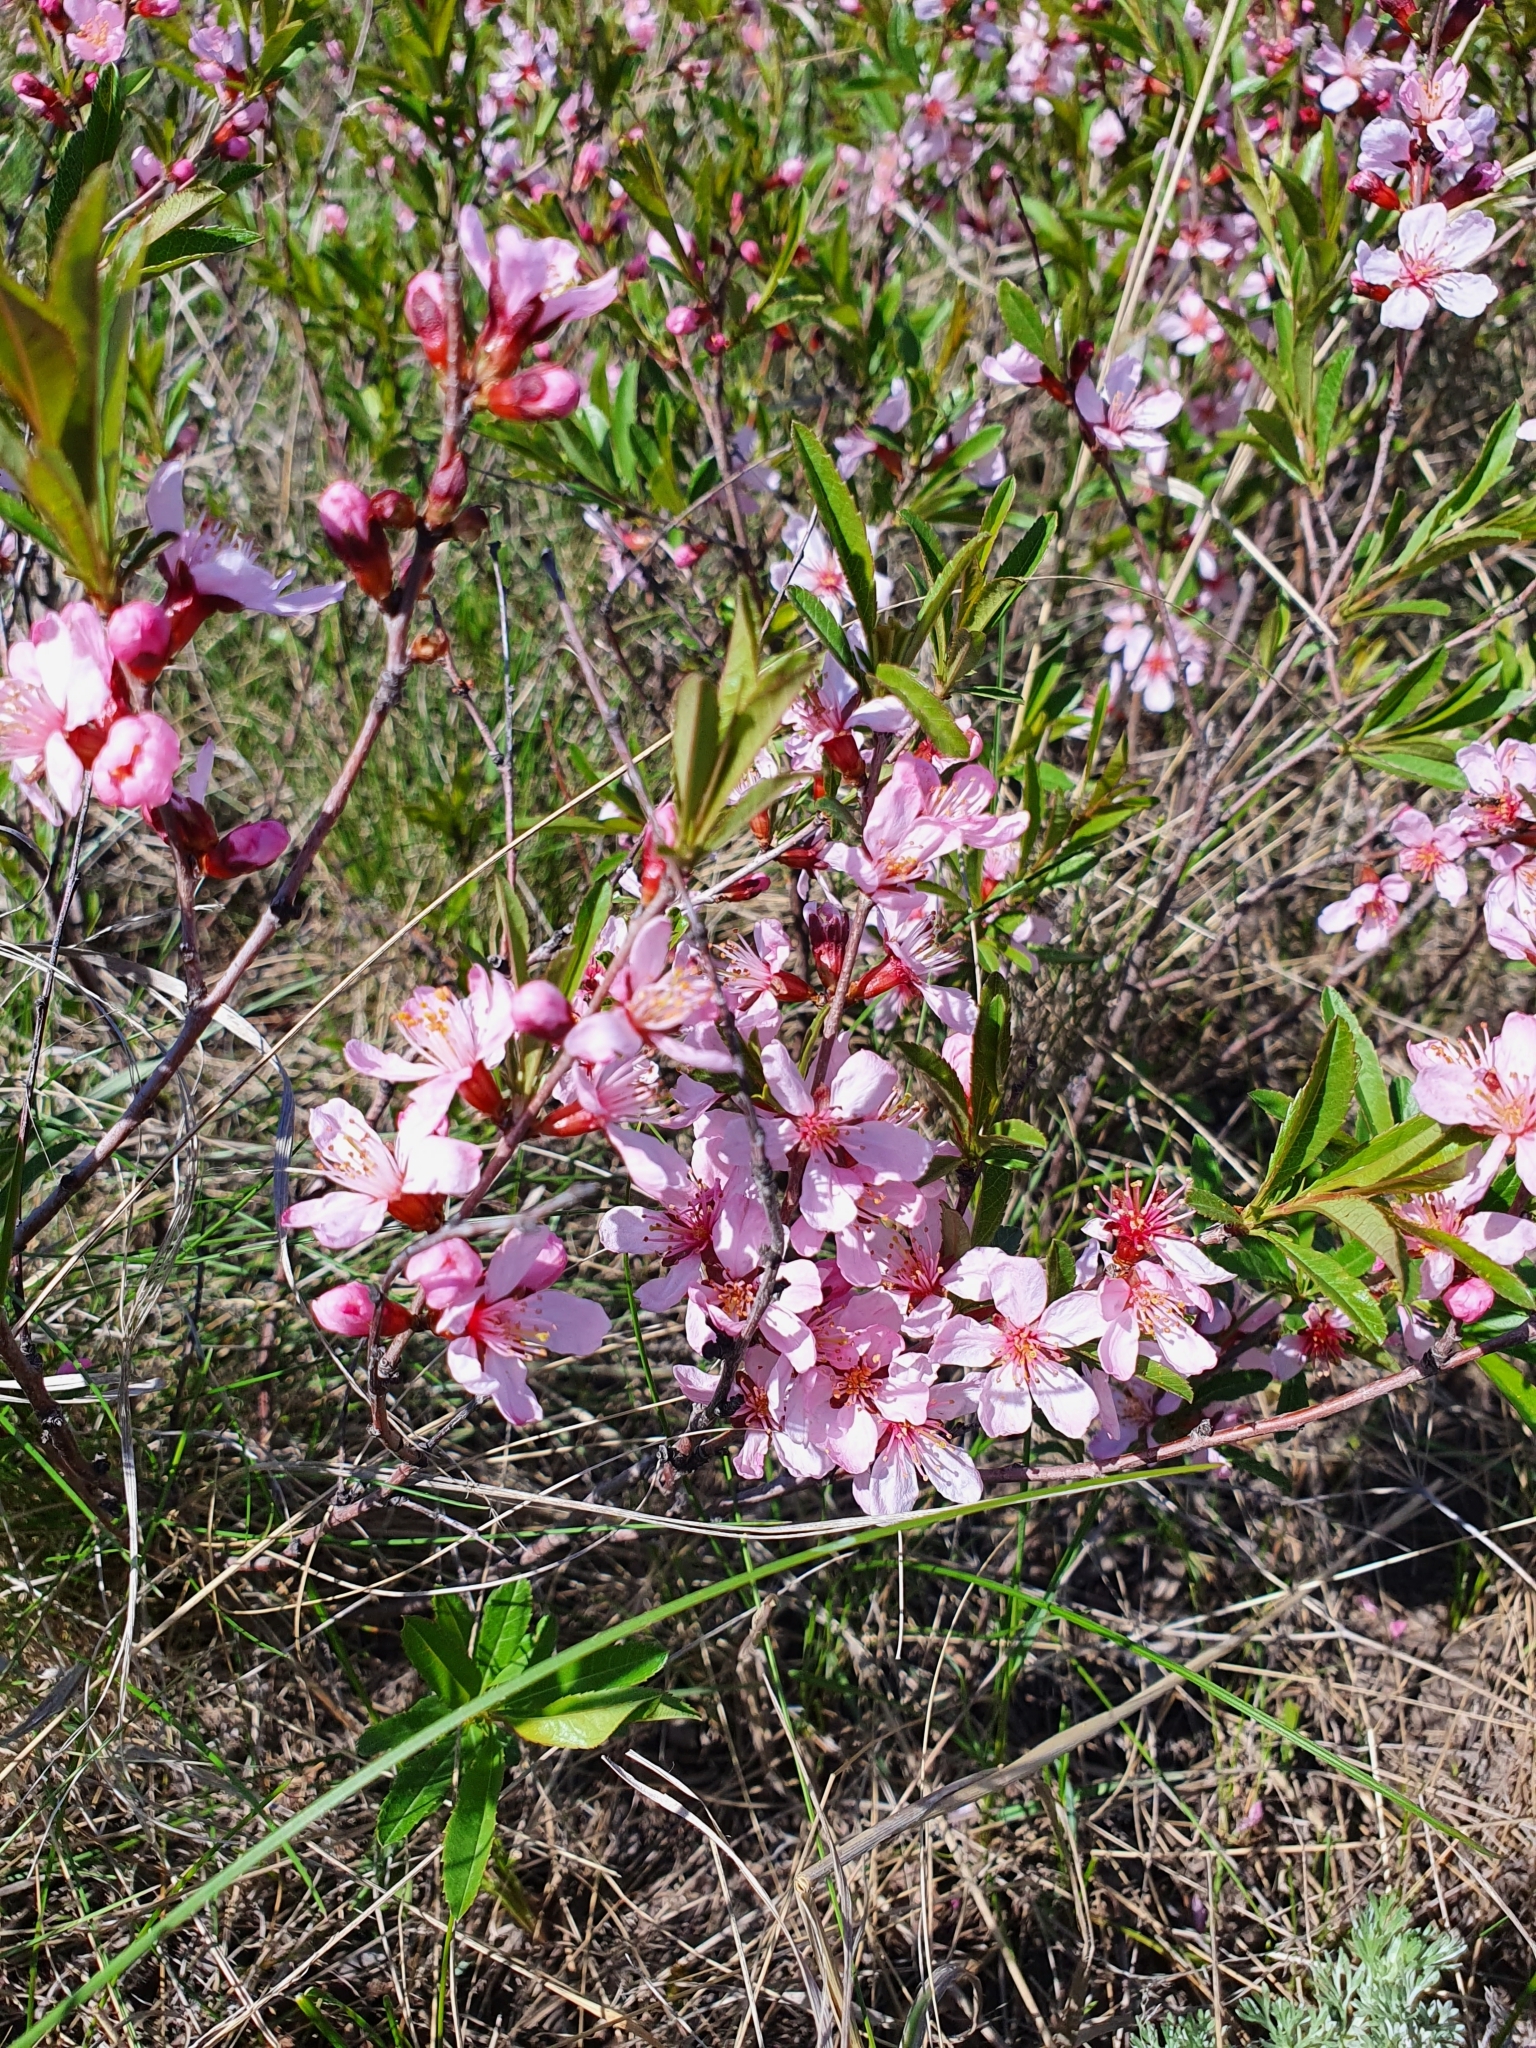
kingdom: Plantae
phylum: Tracheophyta
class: Magnoliopsida
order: Rosales
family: Rosaceae
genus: Prunus
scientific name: Prunus tenella
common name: Dwarf russian almond
